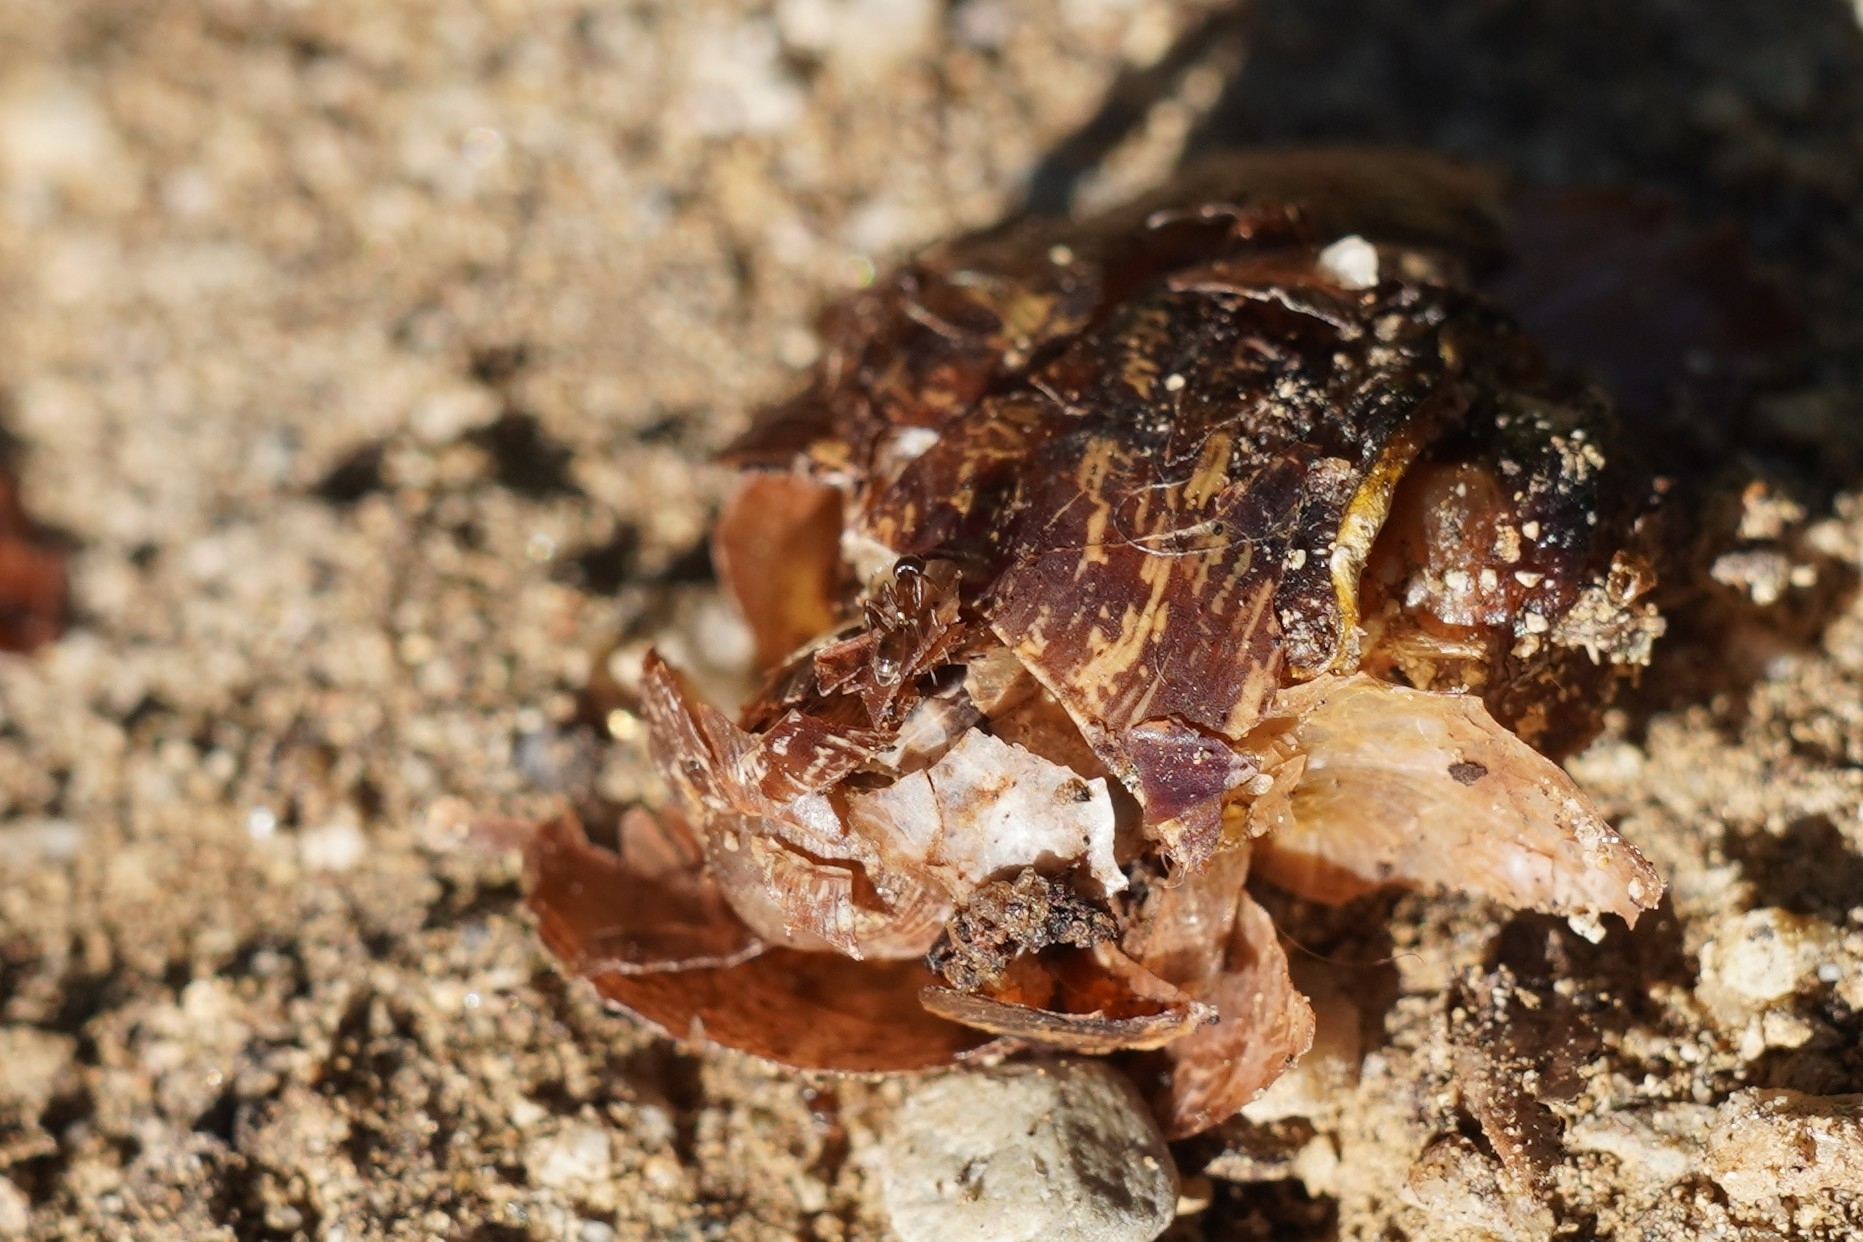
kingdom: Animalia
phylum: Arthropoda
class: Insecta
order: Hymenoptera
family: Formicidae
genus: Linepithema
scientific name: Linepithema humile
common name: Argentine ant
